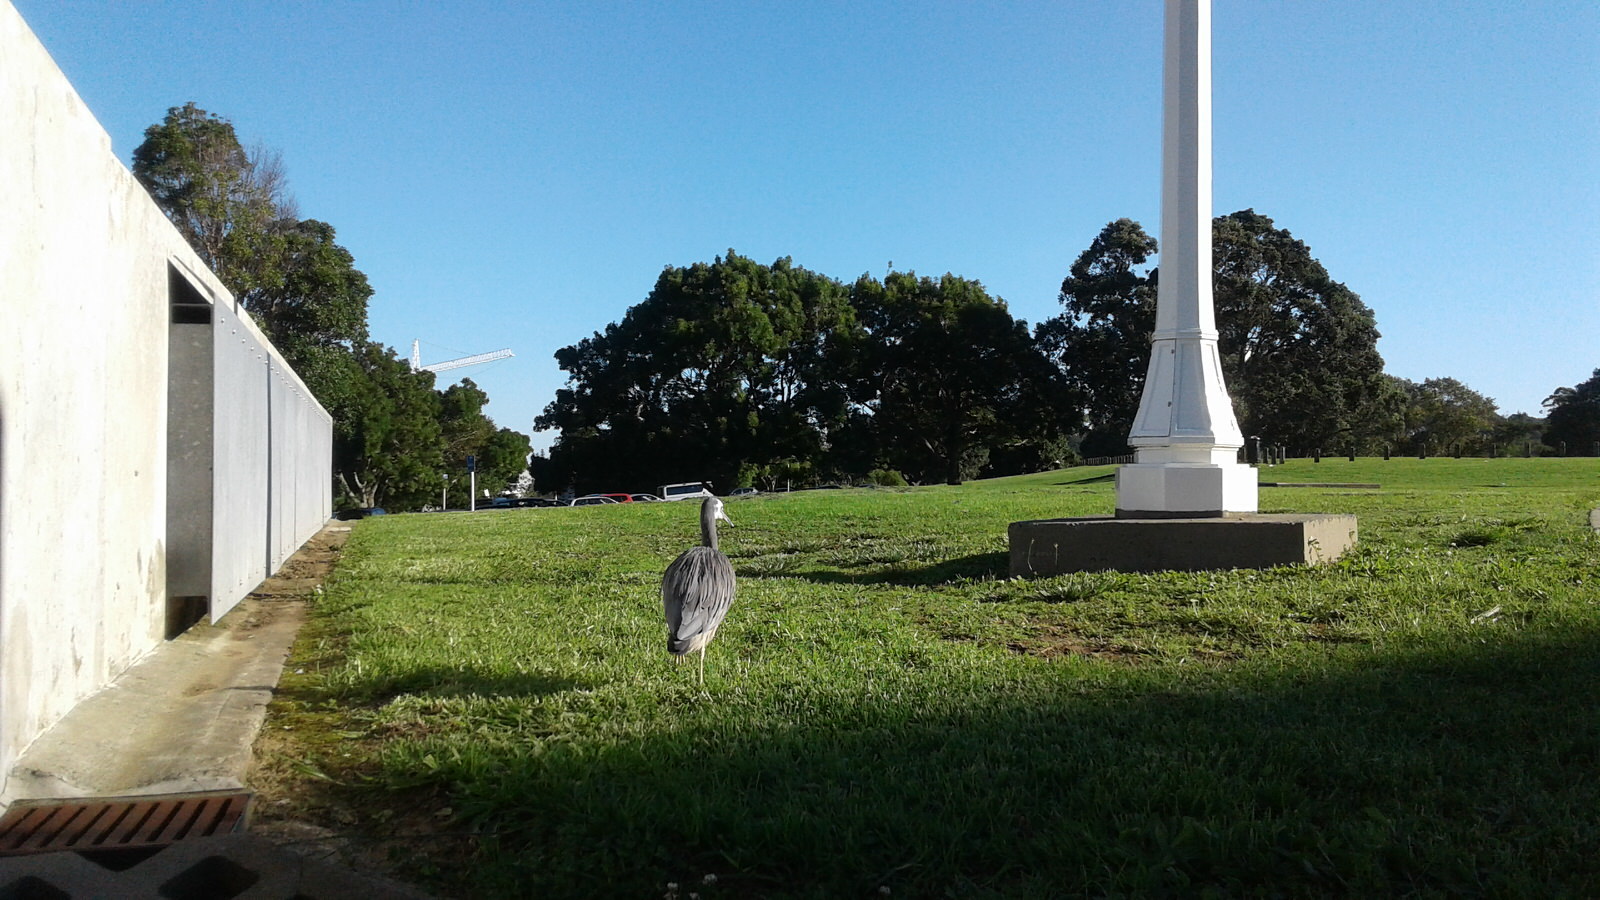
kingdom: Animalia
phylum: Chordata
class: Aves
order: Pelecaniformes
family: Ardeidae
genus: Egretta
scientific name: Egretta novaehollandiae
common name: White-faced heron
